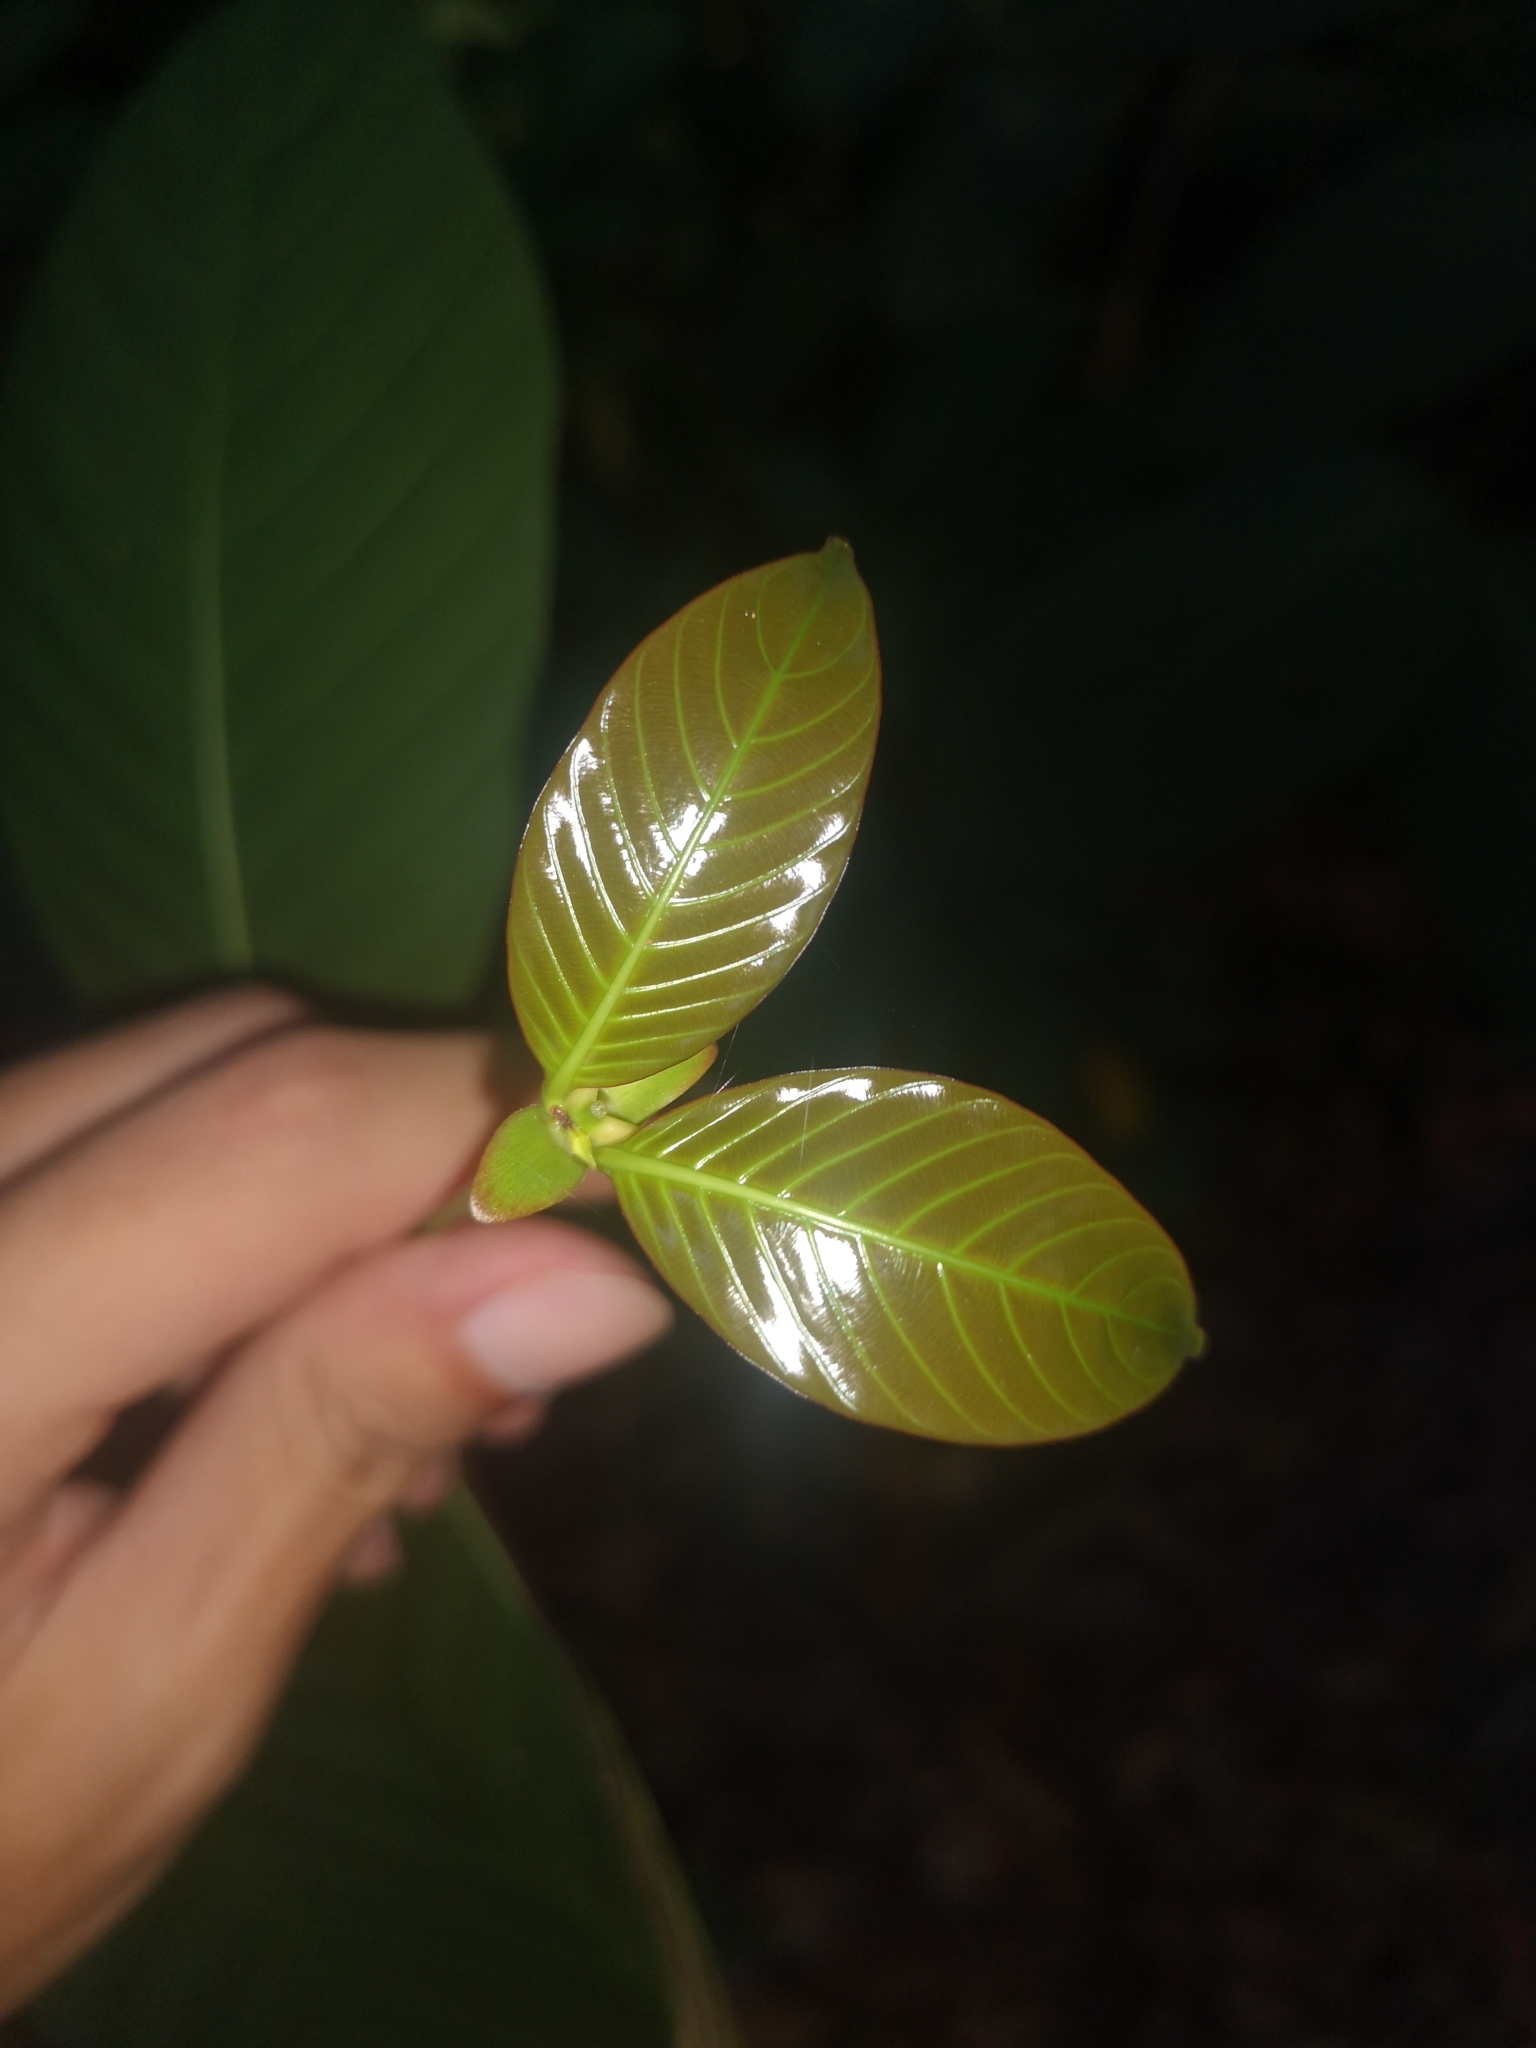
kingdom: Plantae
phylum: Tracheophyta
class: Magnoliopsida
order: Gentianales
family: Rubiaceae
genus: Uncaria
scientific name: Uncaria longiflora
